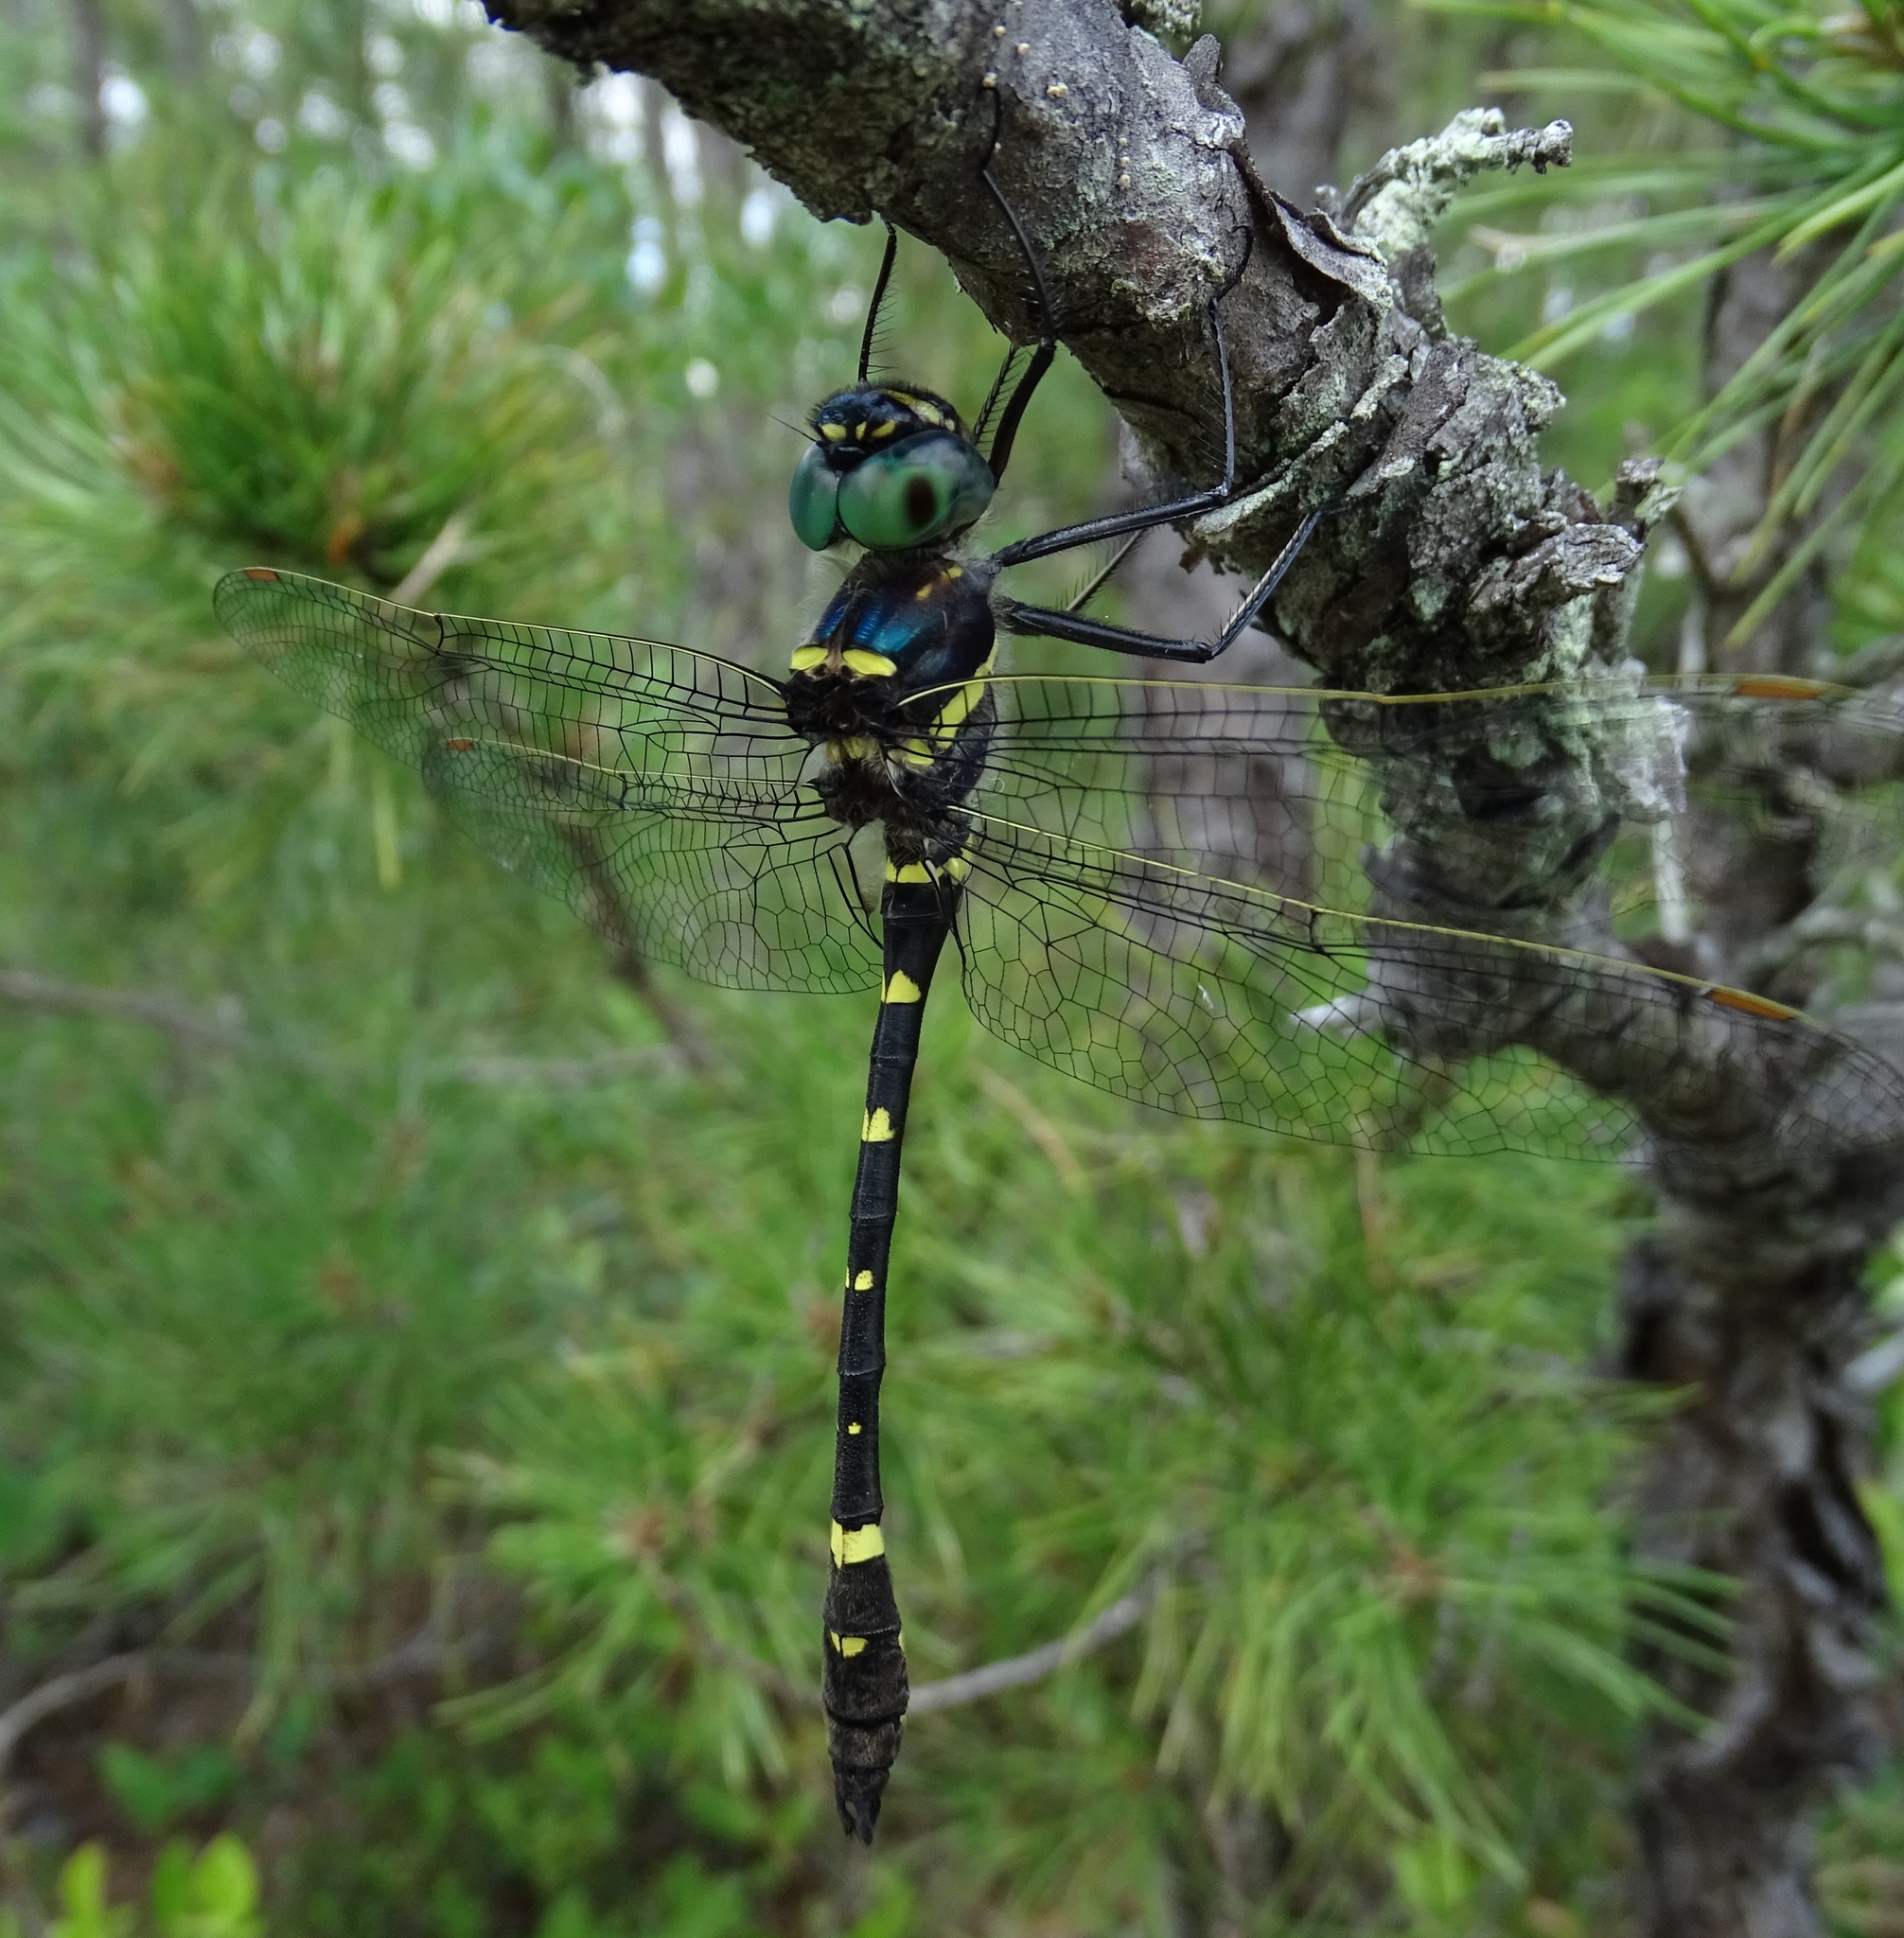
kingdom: Animalia
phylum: Arthropoda
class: Insecta
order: Odonata
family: Macromiidae
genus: Macromia
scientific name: Macromia alleghaniensis
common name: Allegheny river cruiser
